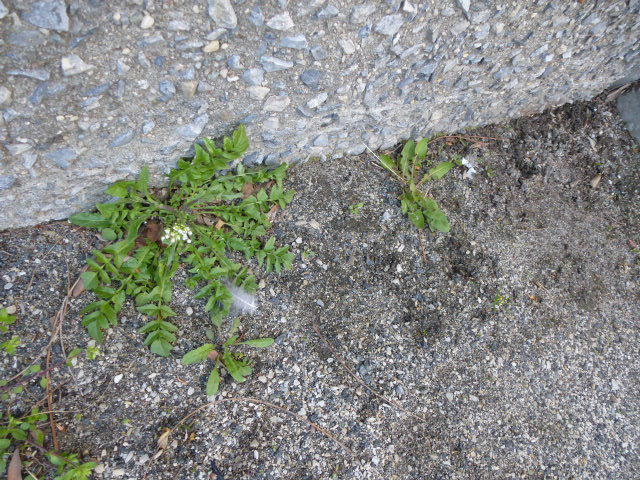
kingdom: Plantae
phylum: Tracheophyta
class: Magnoliopsida
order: Brassicales
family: Brassicaceae
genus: Capsella
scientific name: Capsella bursa-pastoris
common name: Shepherd's purse
